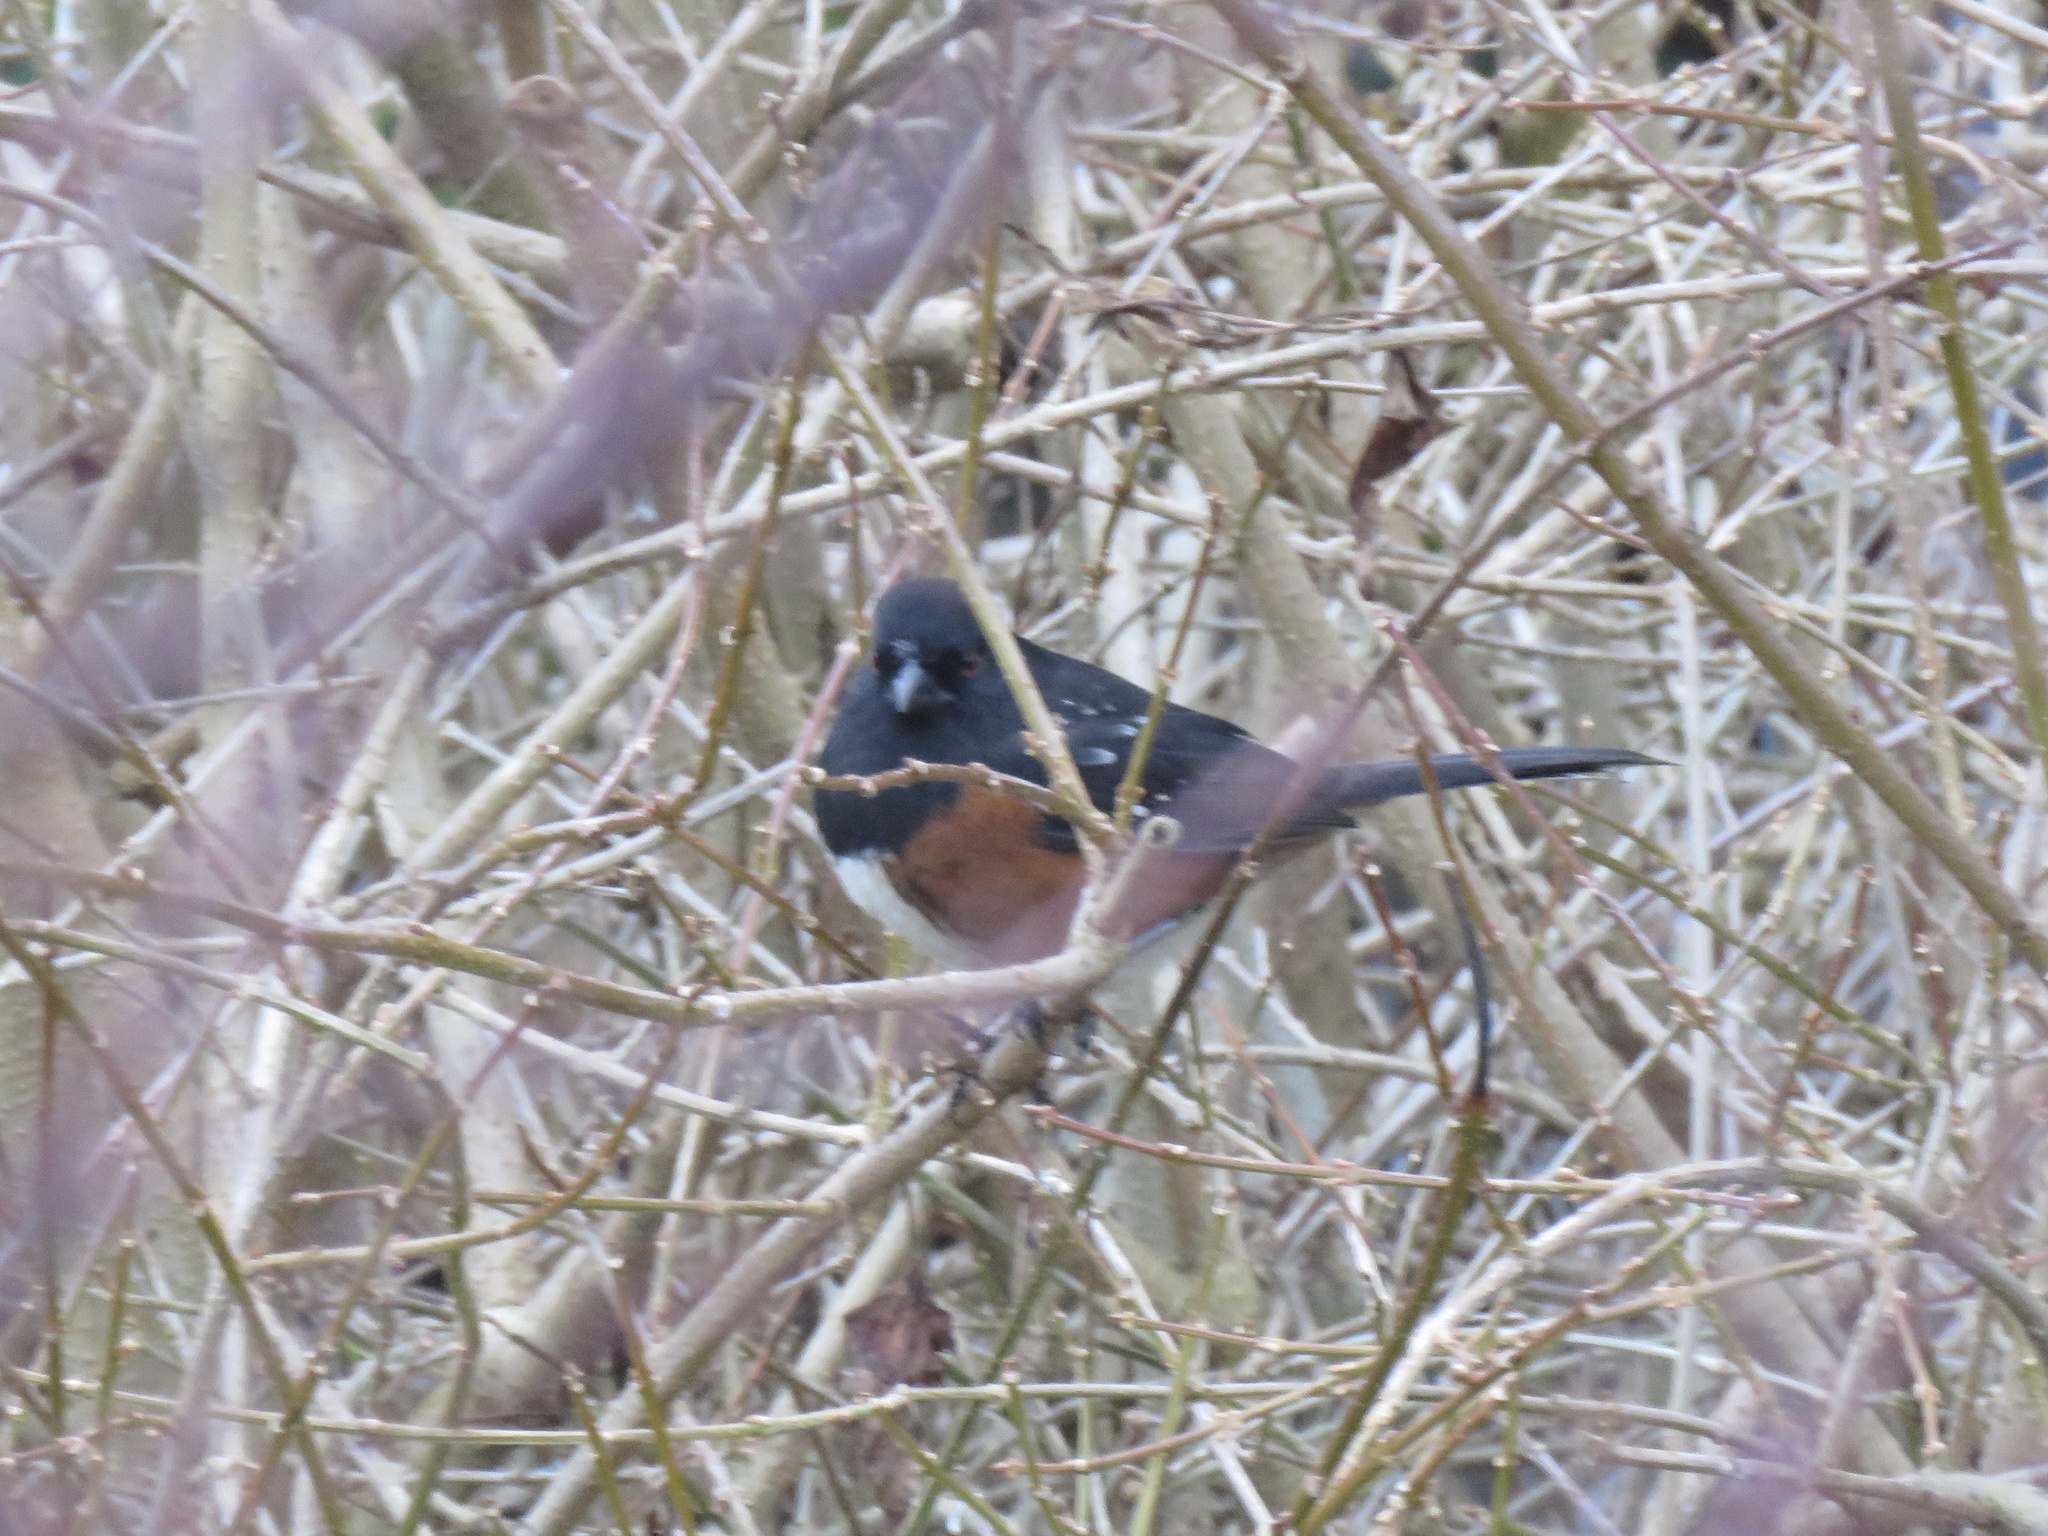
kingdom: Animalia
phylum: Chordata
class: Aves
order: Passeriformes
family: Passerellidae
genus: Pipilo
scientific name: Pipilo maculatus
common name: Spotted towhee
